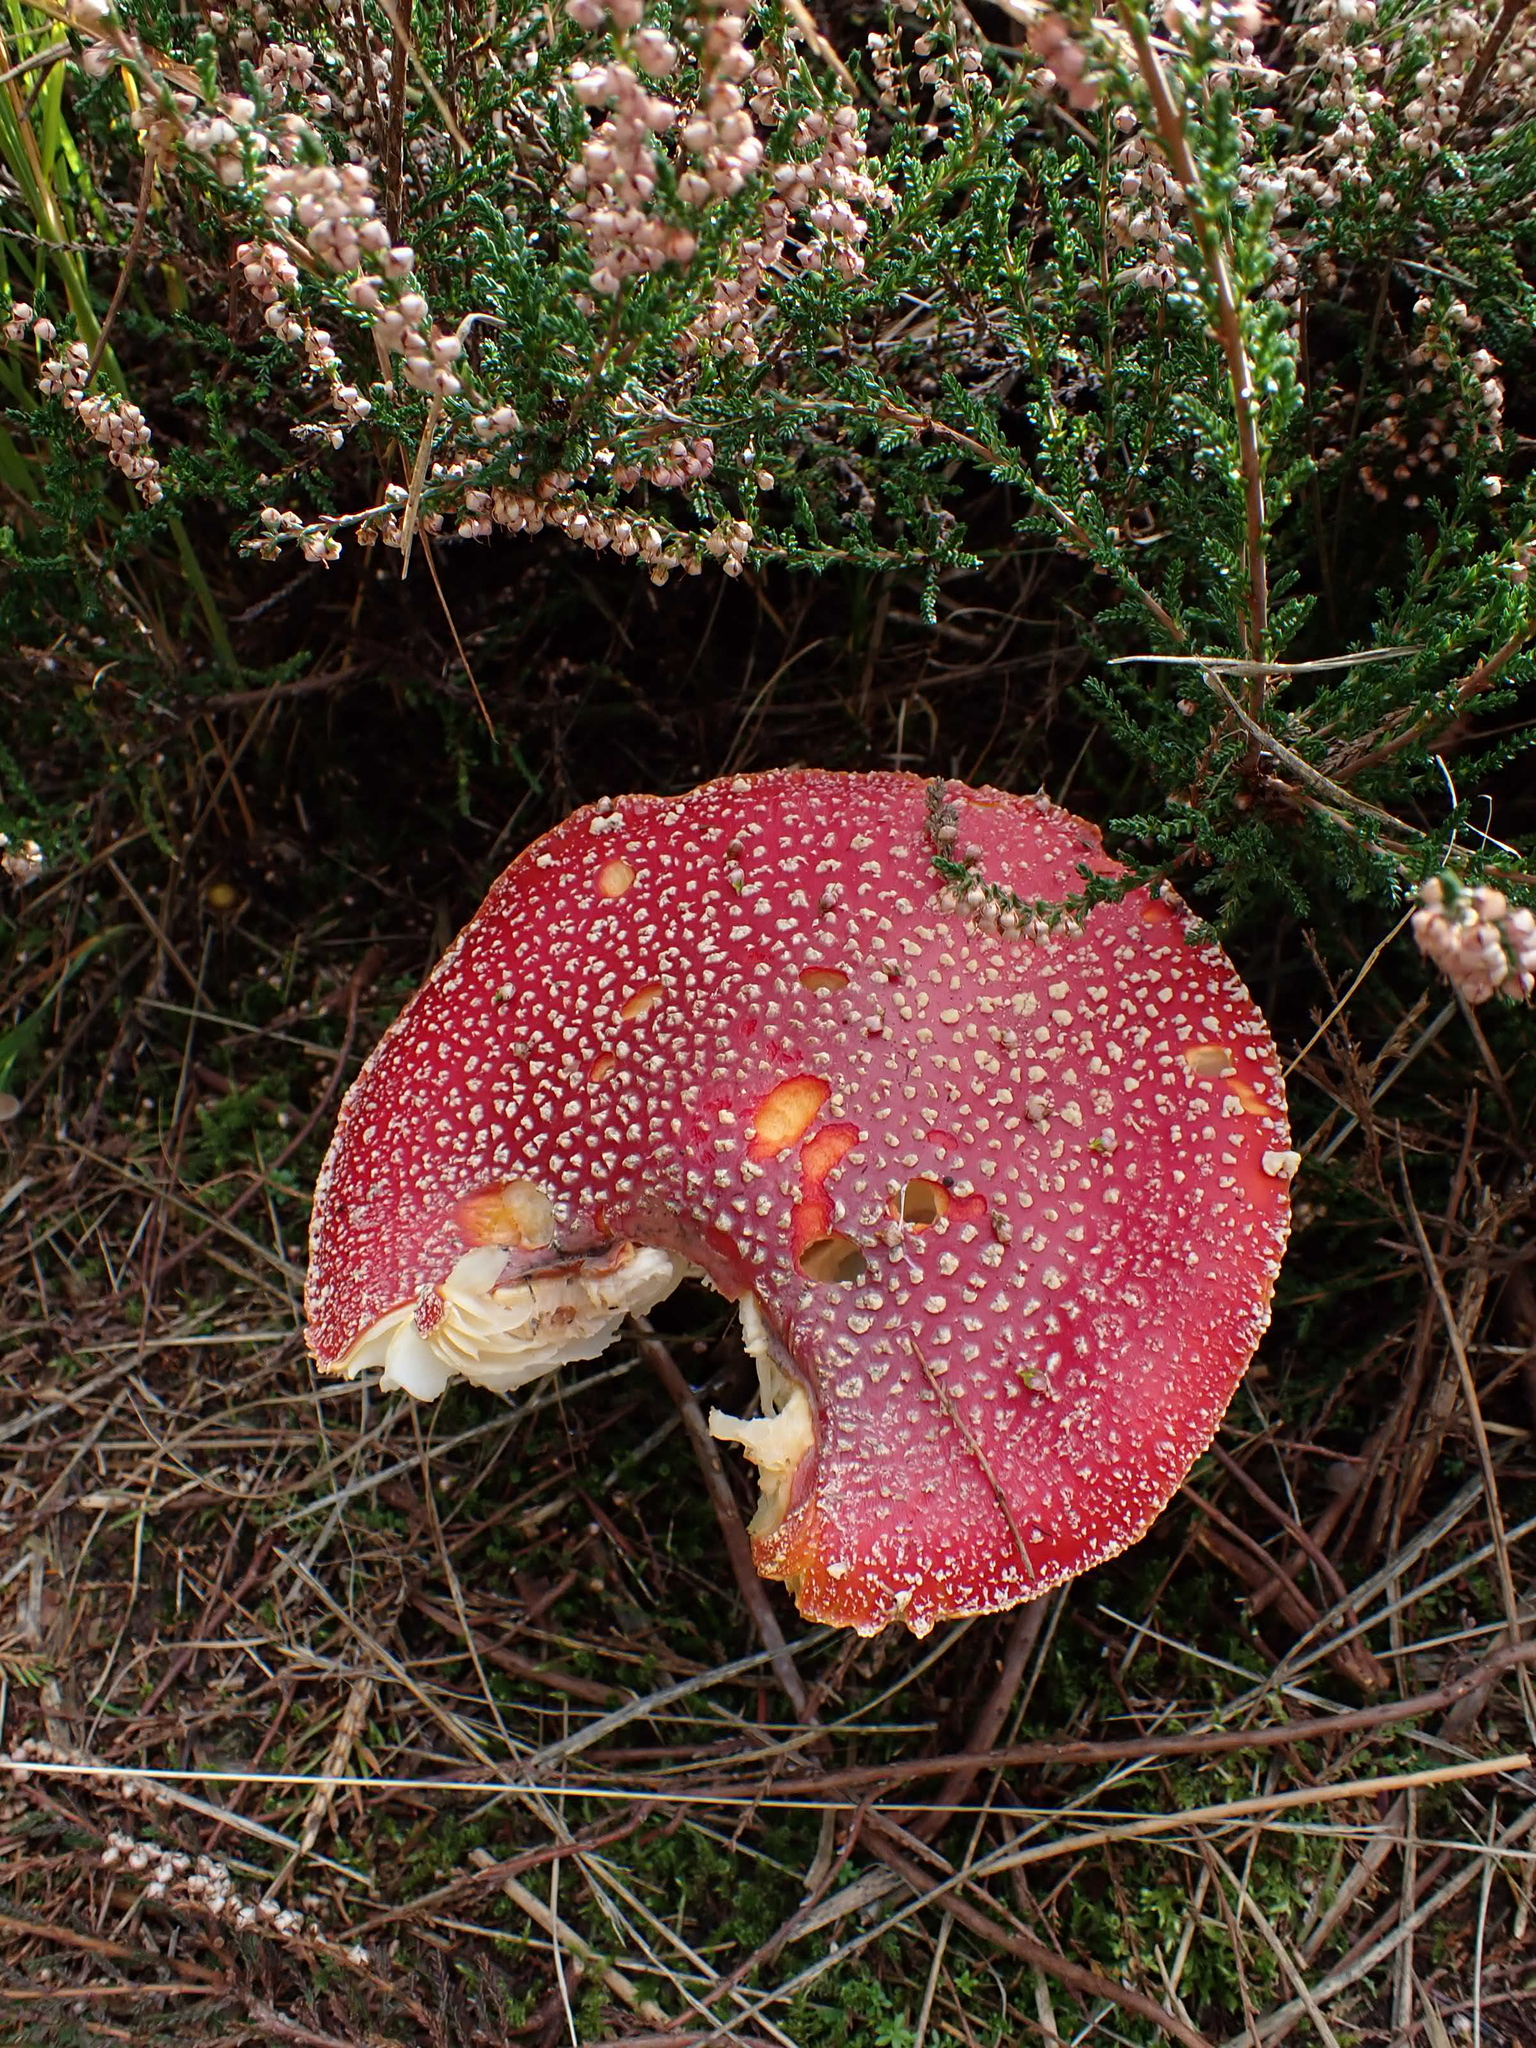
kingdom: Fungi
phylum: Basidiomycota
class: Agaricomycetes
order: Agaricales
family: Amanitaceae
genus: Amanita
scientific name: Amanita muscaria
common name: Fly agaric
